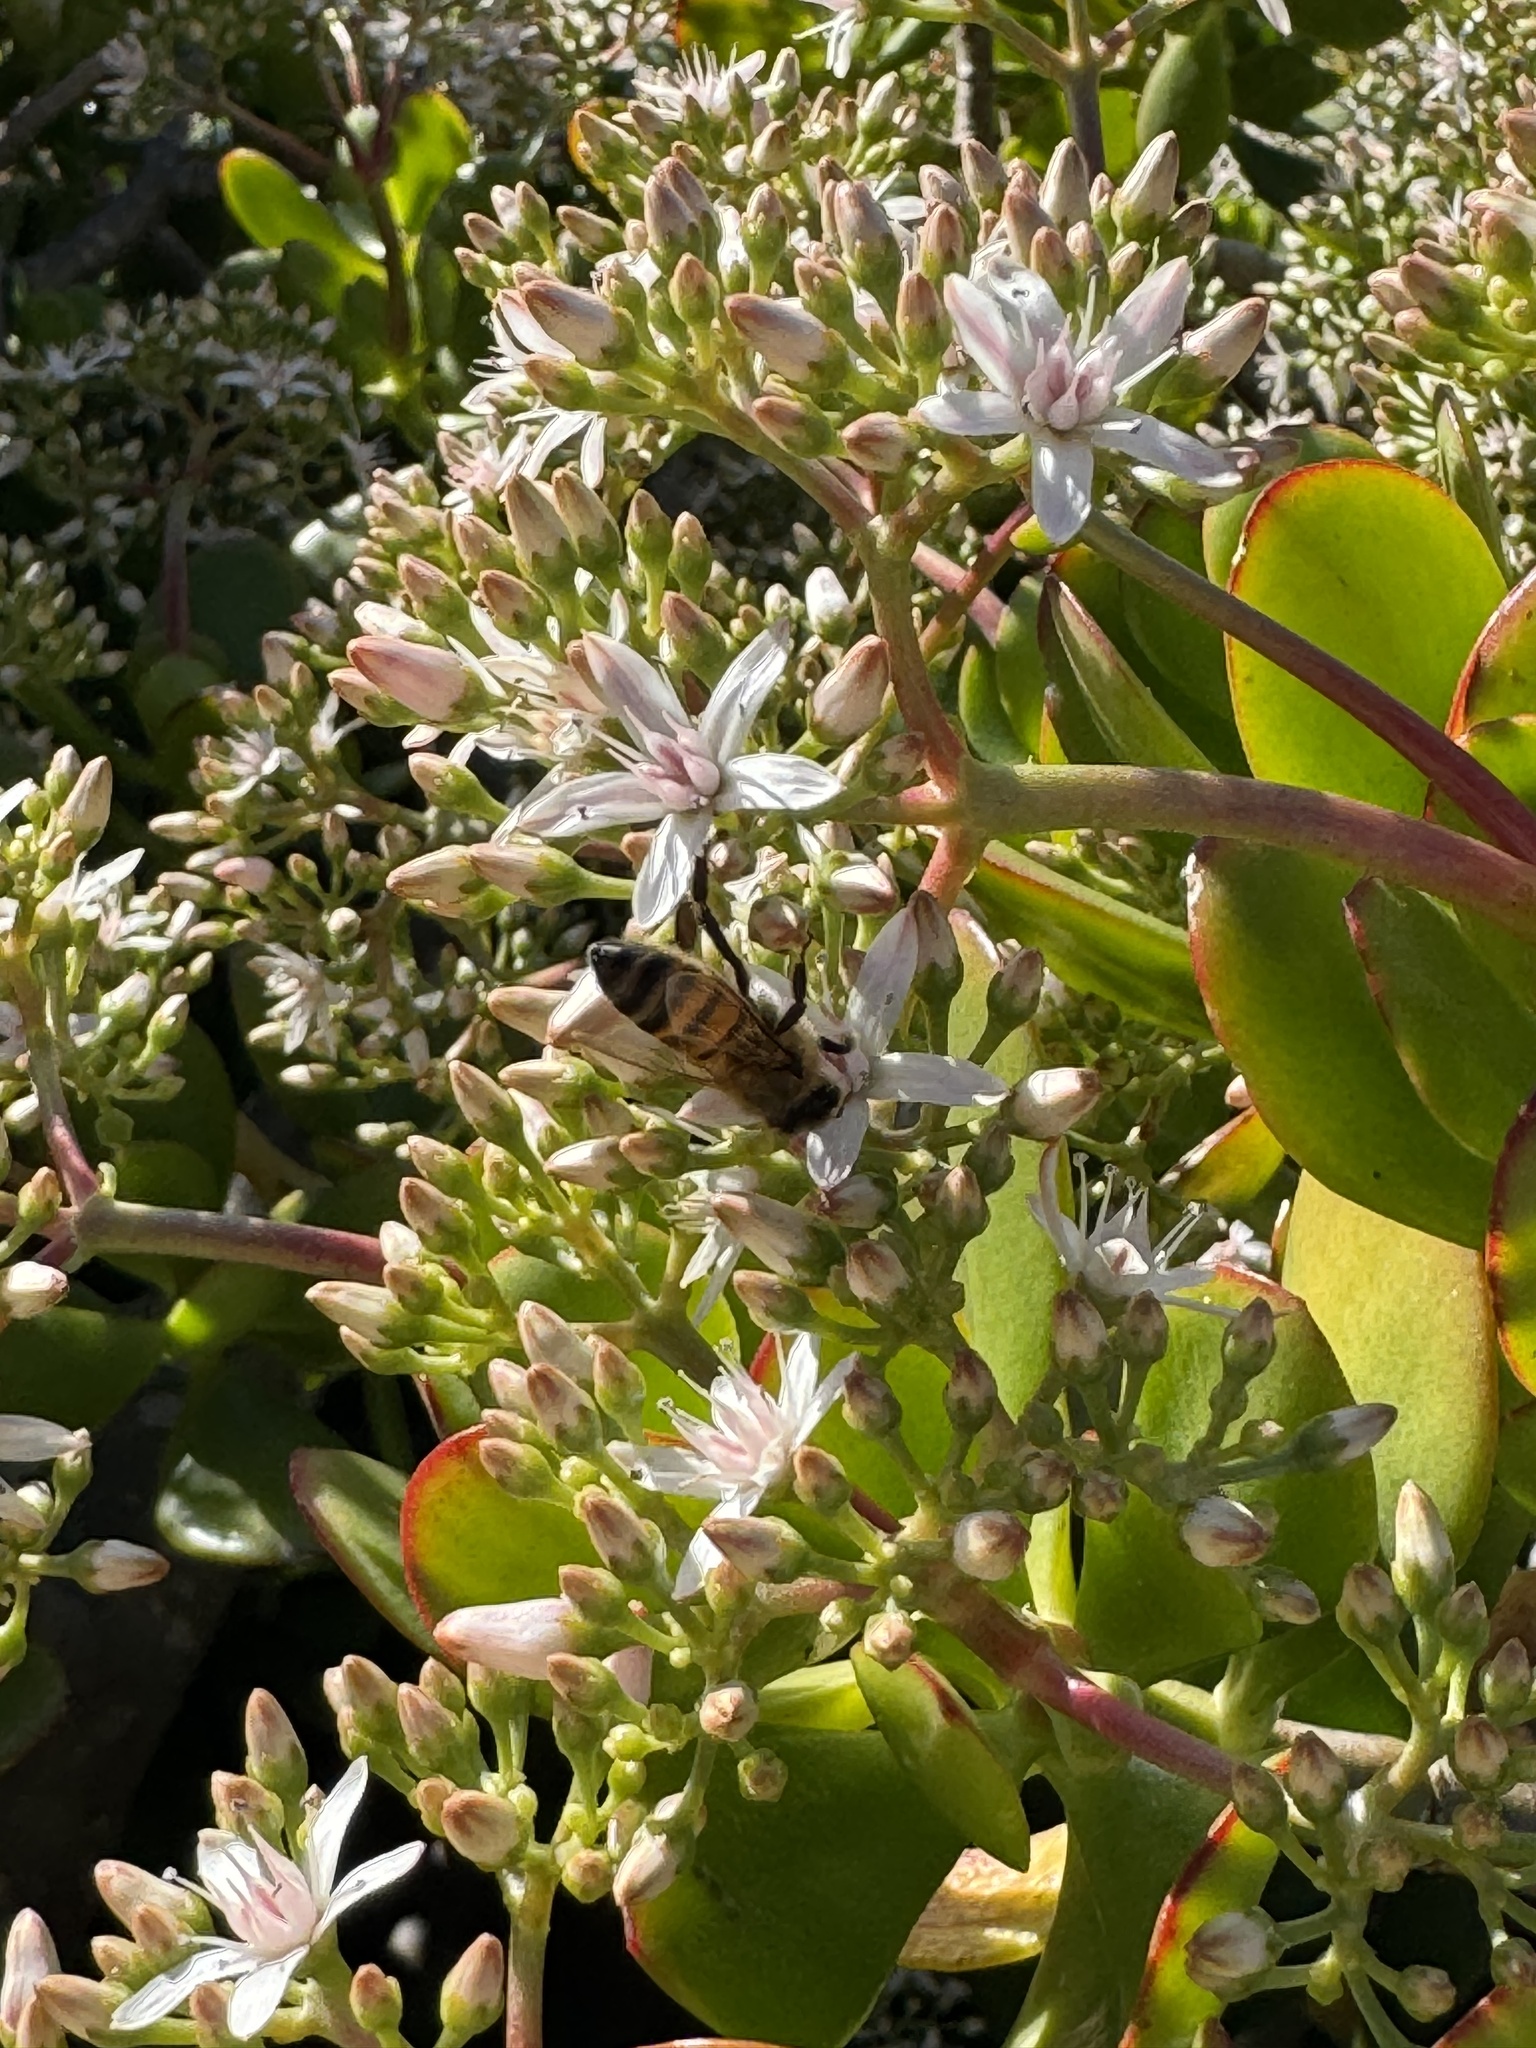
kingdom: Animalia
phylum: Arthropoda
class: Insecta
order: Hymenoptera
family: Apidae
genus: Apis
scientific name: Apis mellifera
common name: Honey bee
